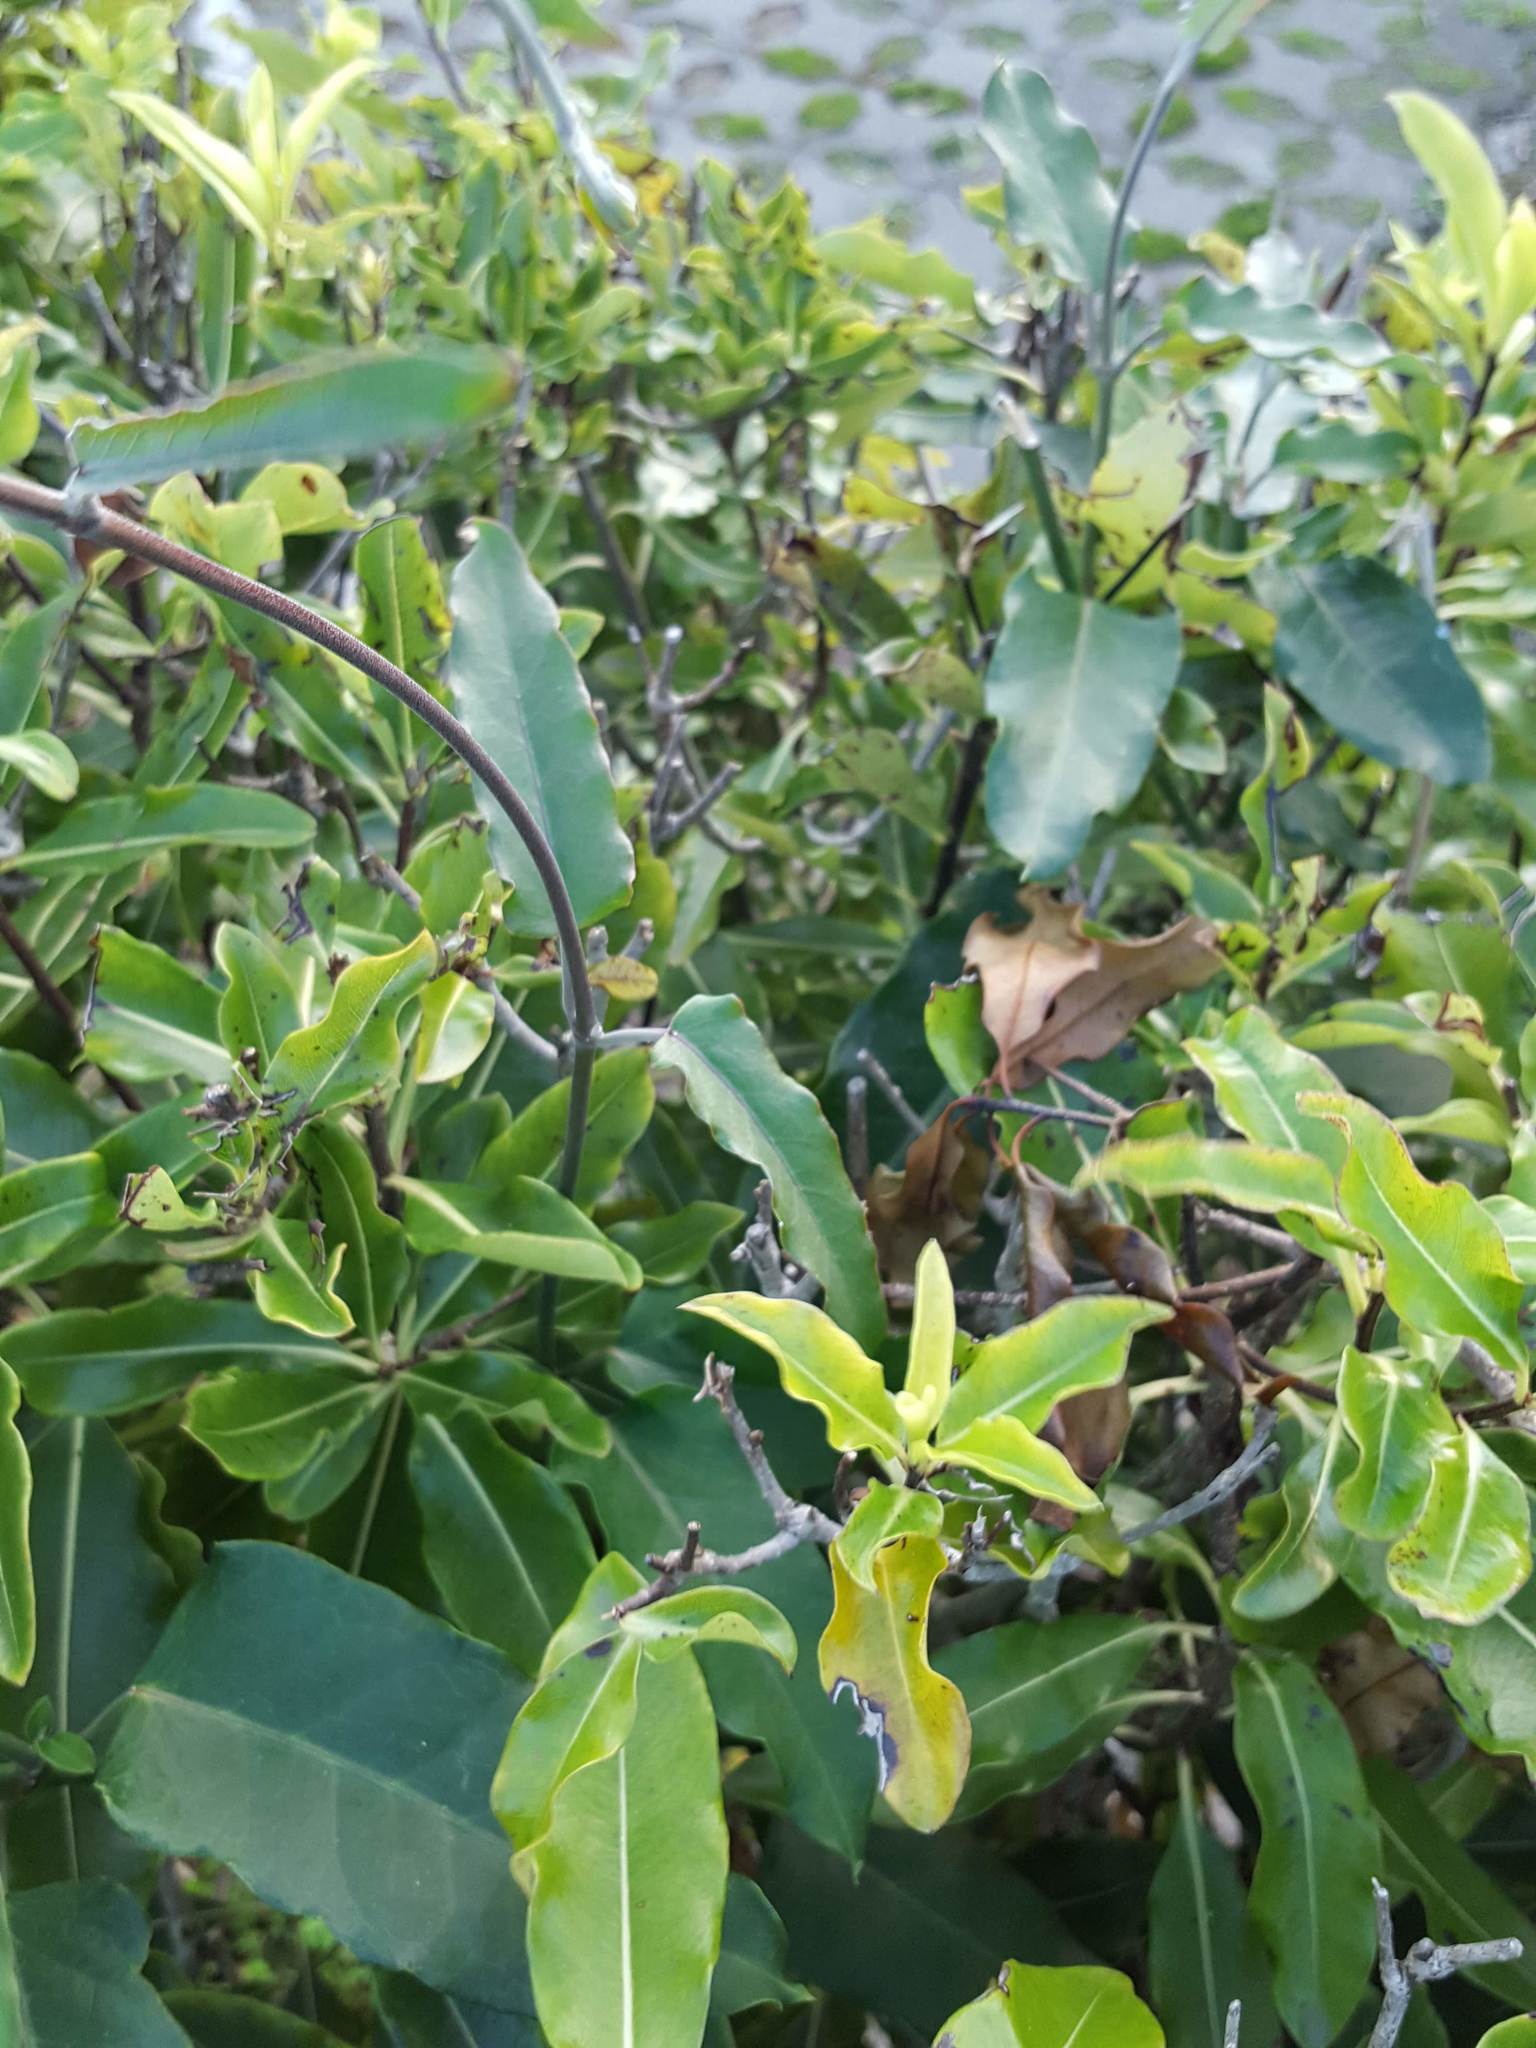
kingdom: Plantae
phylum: Tracheophyta
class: Magnoliopsida
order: Gentianales
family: Apocynaceae
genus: Araujia
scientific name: Araujia sericifera
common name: White bladderflower
